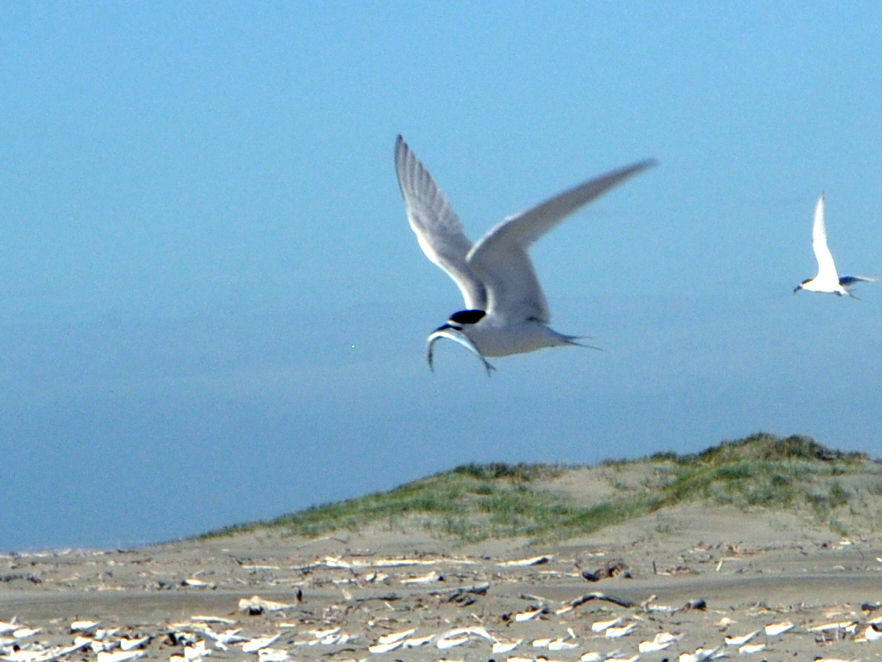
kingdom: Animalia
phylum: Chordata
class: Aves
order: Charadriiformes
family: Laridae
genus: Sterna
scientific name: Sterna striata
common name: White-fronted tern
